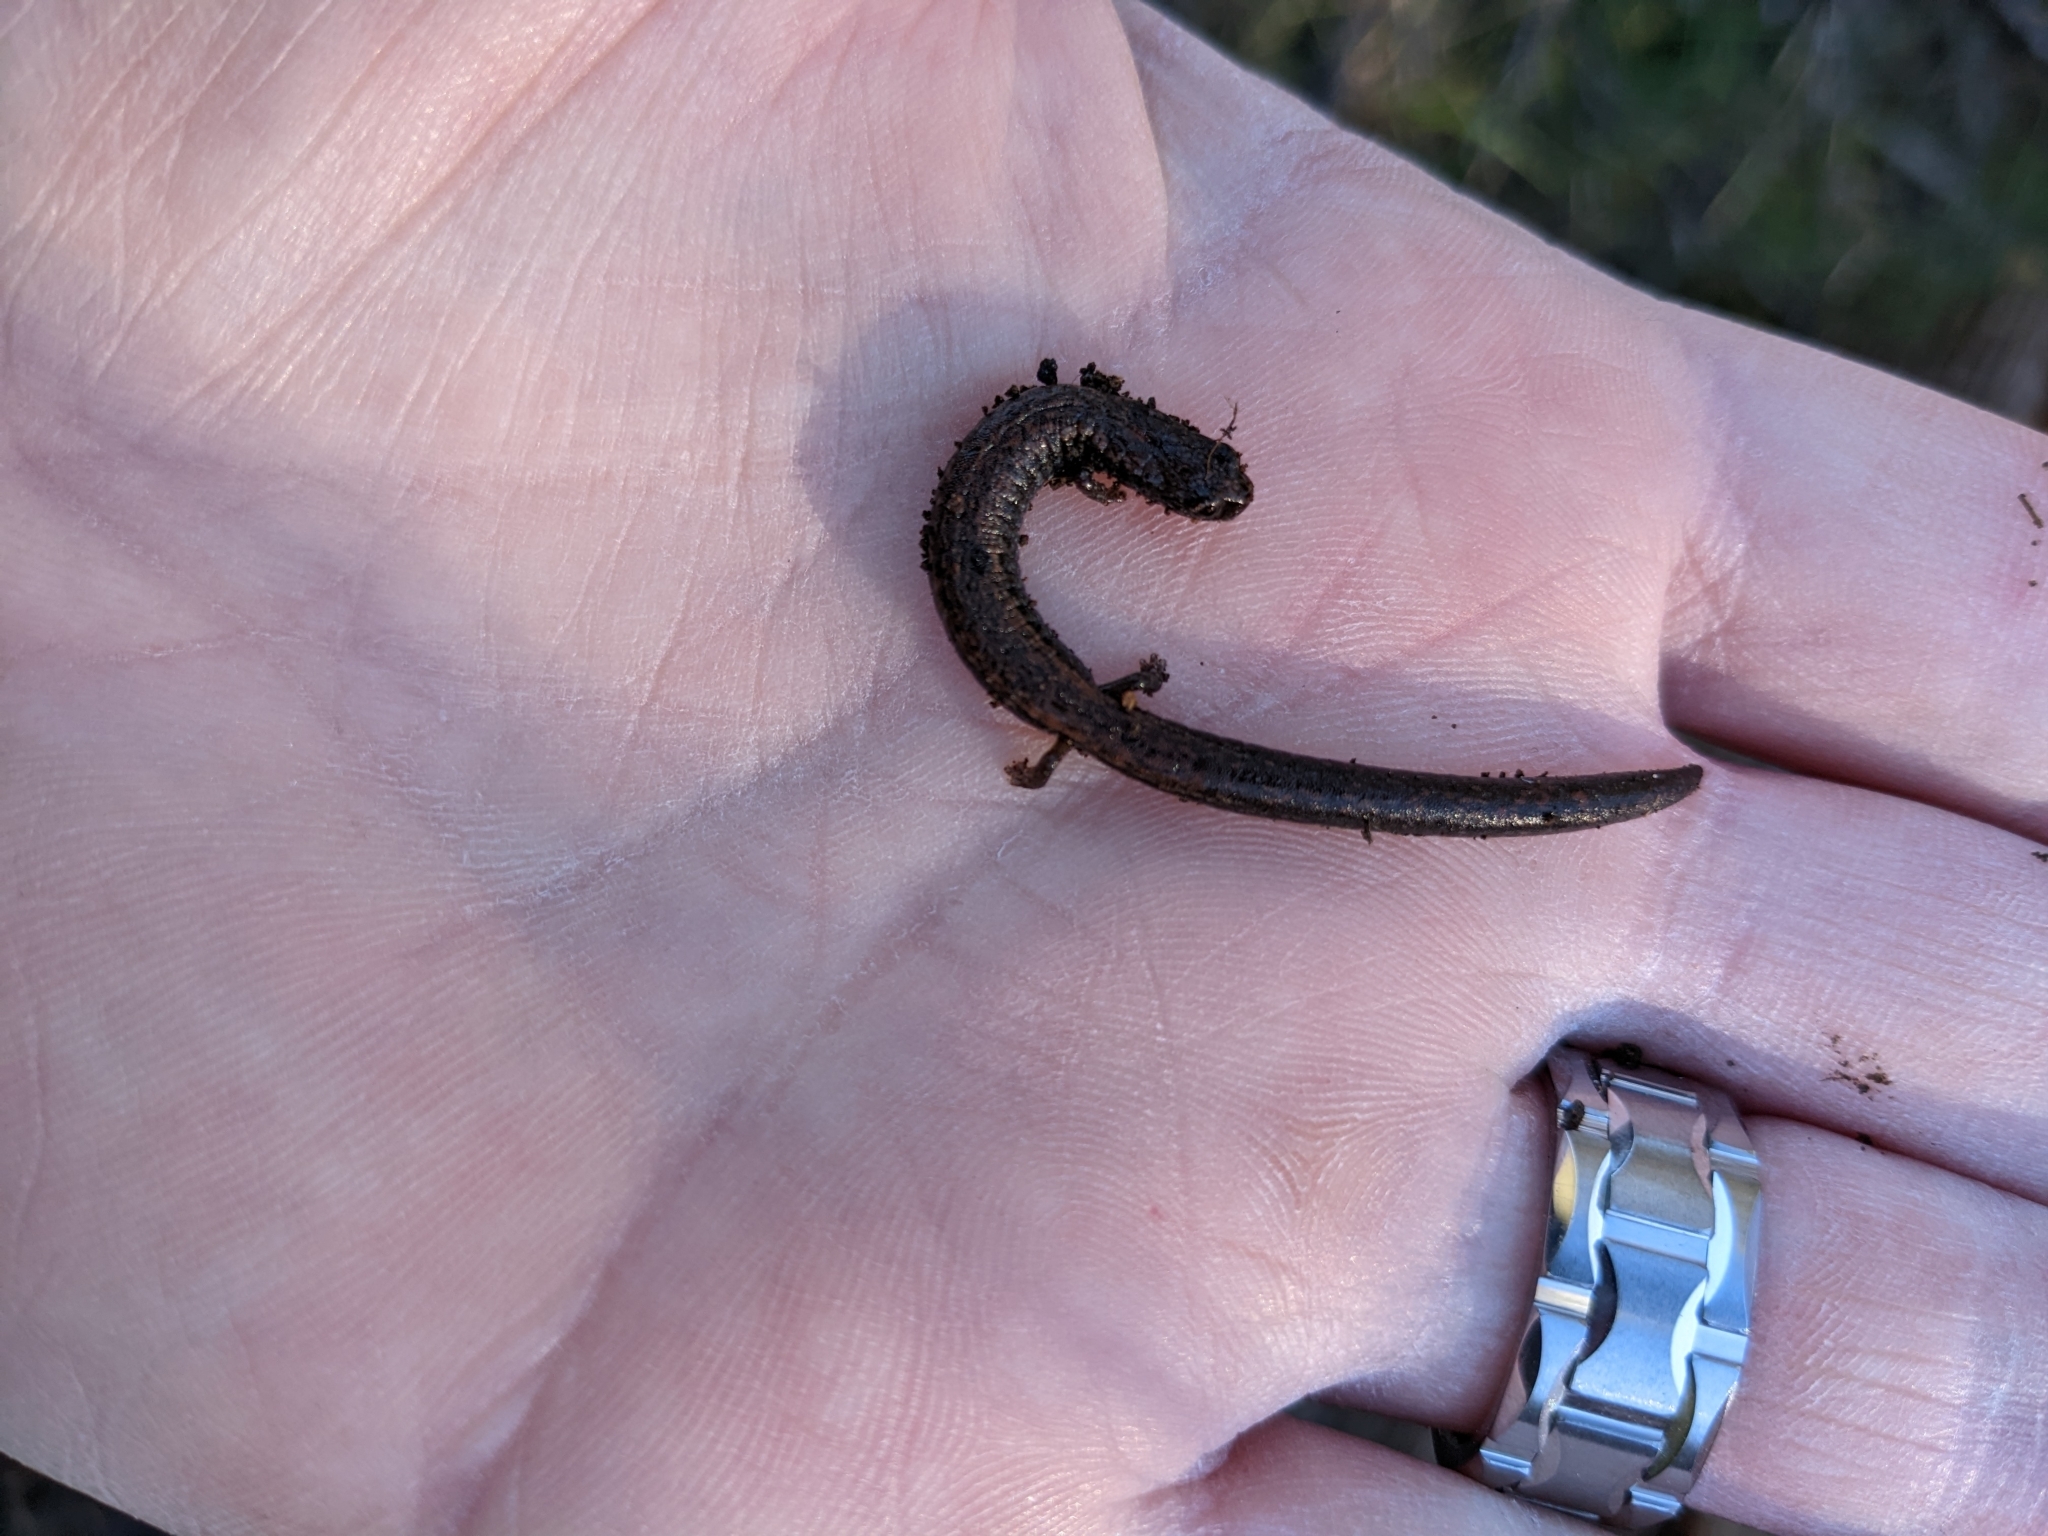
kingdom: Animalia
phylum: Chordata
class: Amphibia
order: Caudata
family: Plethodontidae
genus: Batrachoseps
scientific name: Batrachoseps nigriventris
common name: Black-bellied slender salamander
